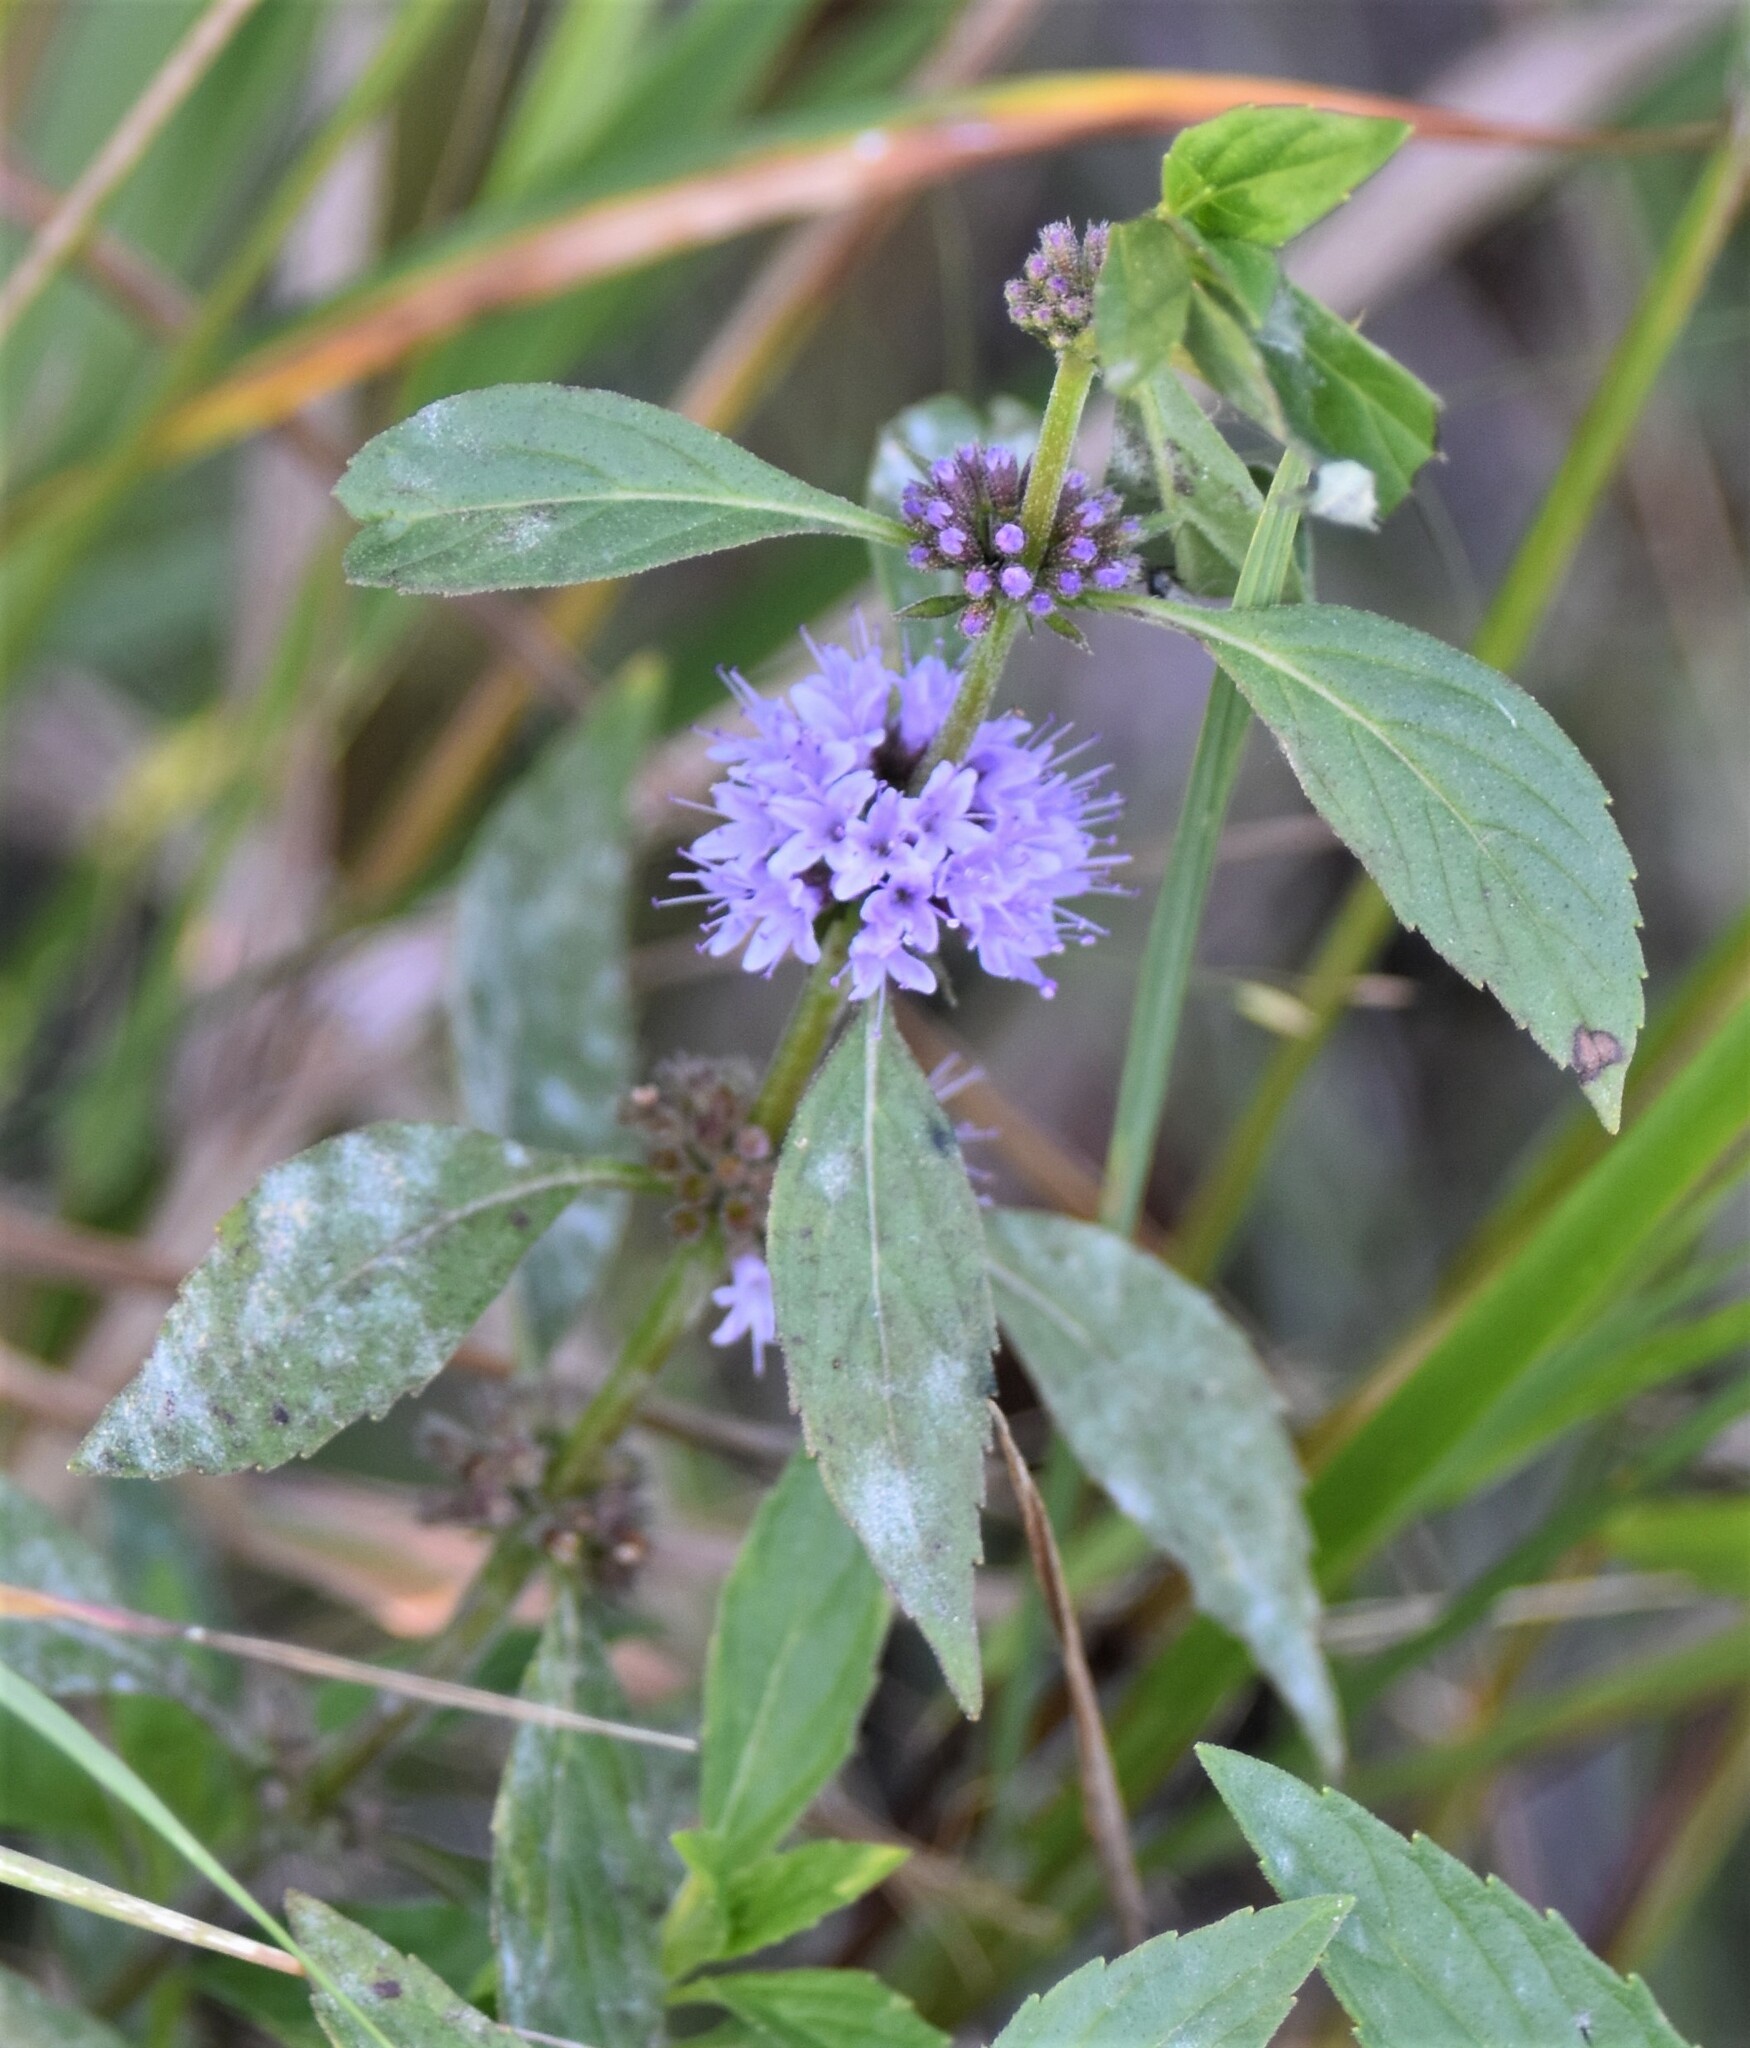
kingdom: Plantae
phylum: Tracheophyta
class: Magnoliopsida
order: Lamiales
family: Lamiaceae
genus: Mentha
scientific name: Mentha canadensis
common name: American corn mint
